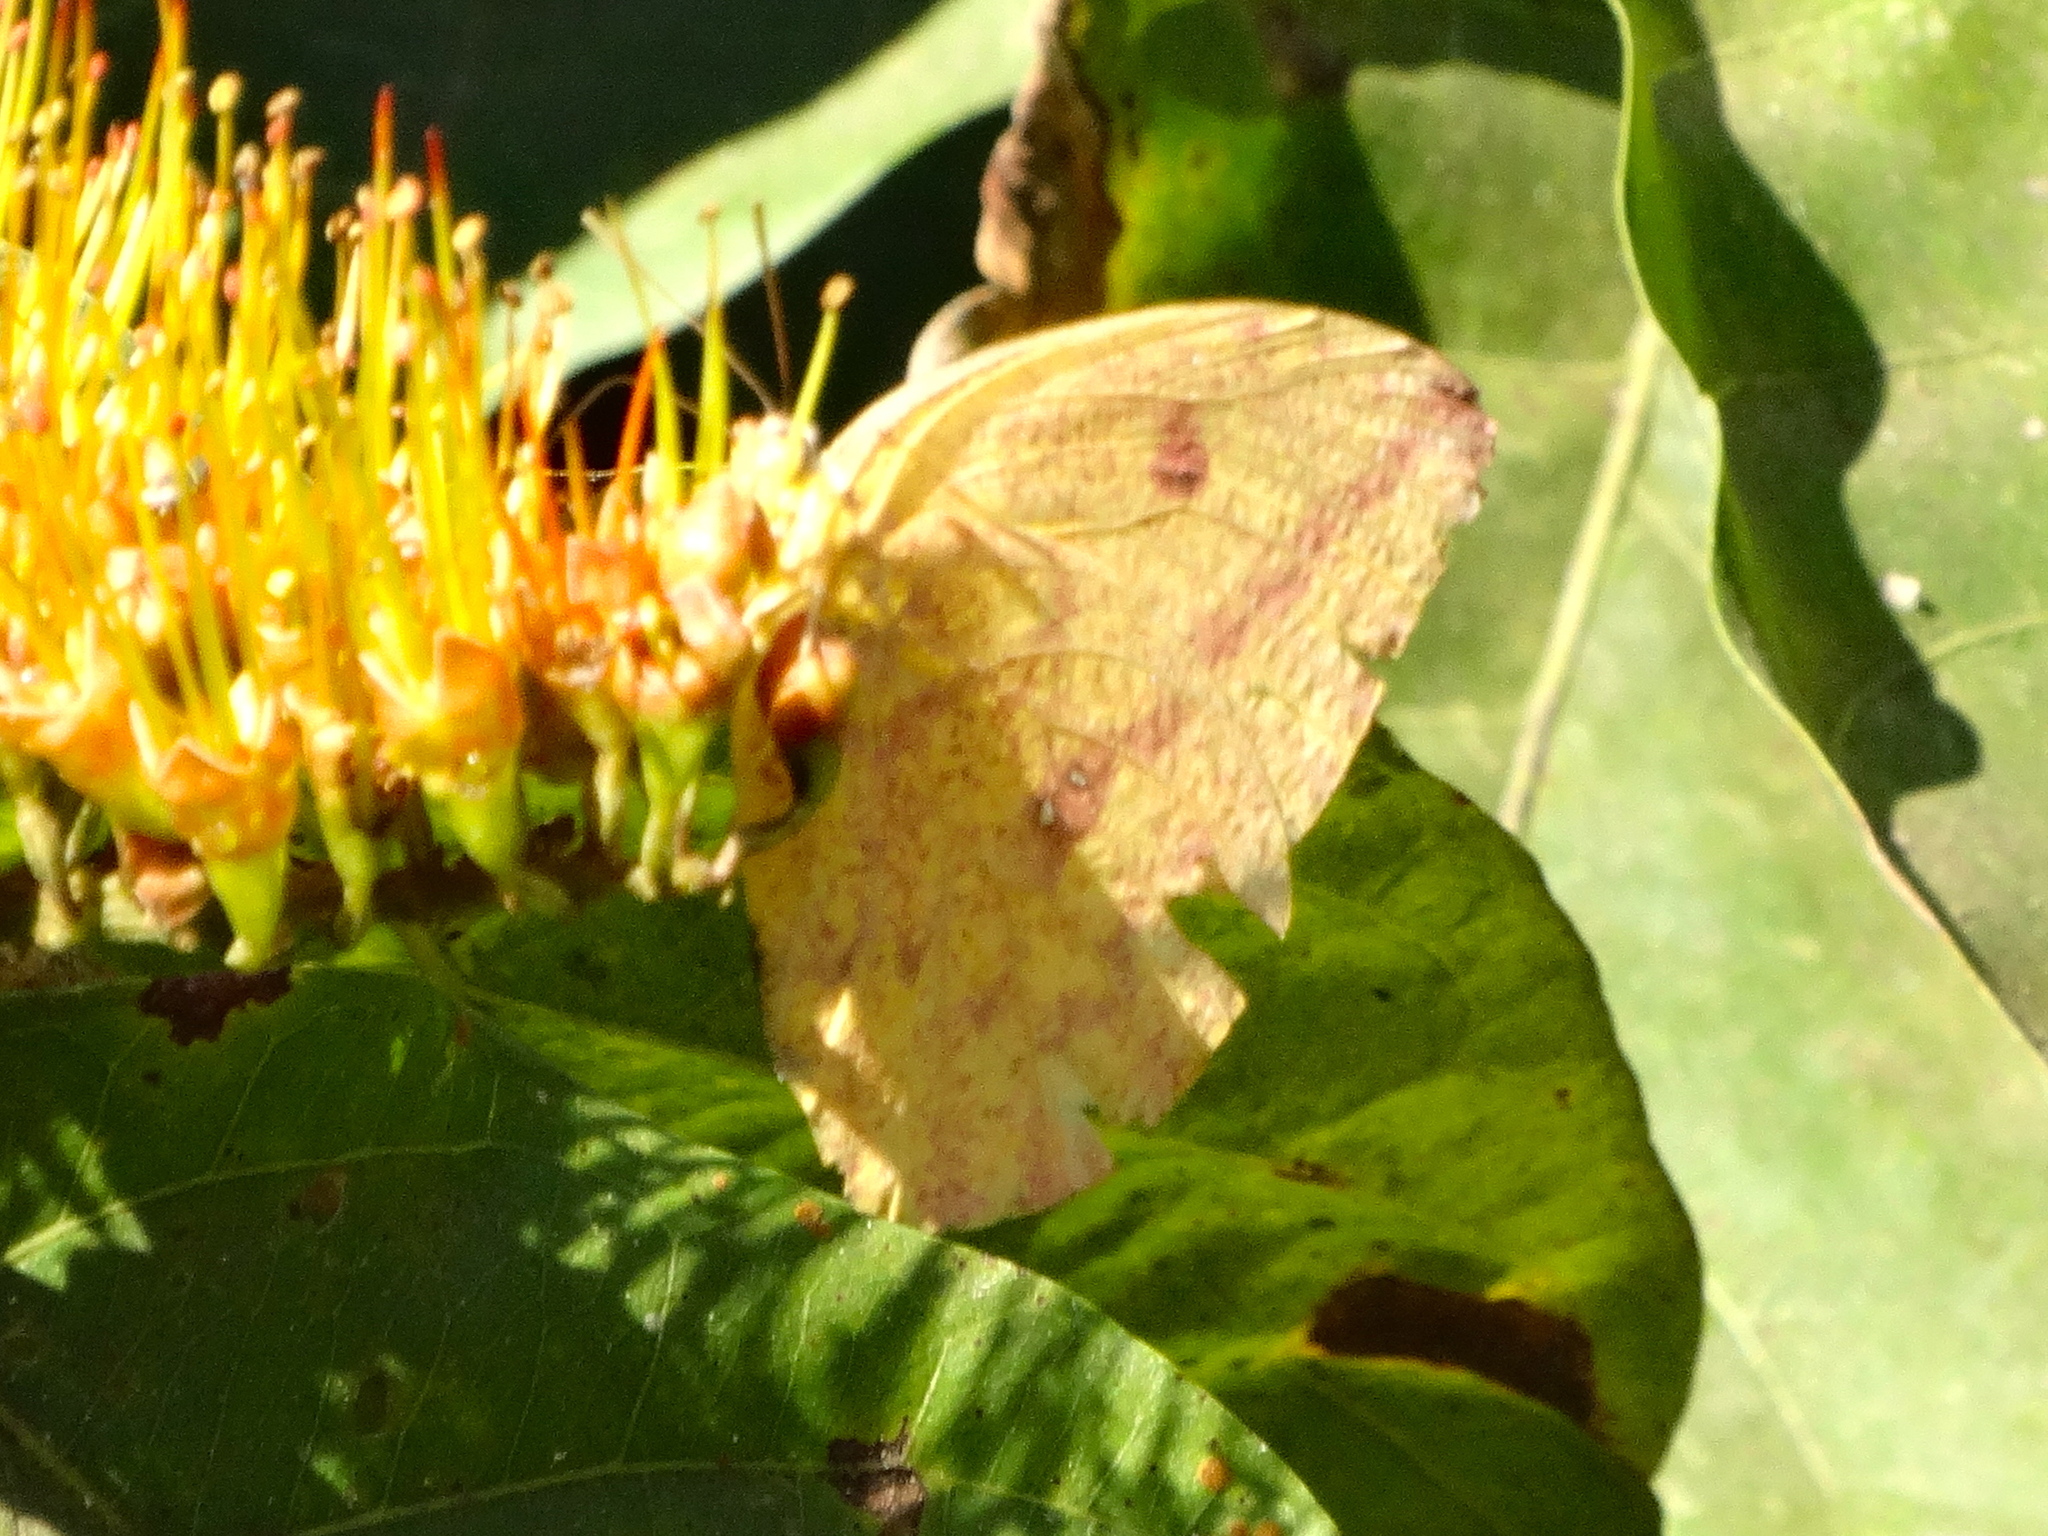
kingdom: Animalia
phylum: Arthropoda
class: Insecta
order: Lepidoptera
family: Pieridae
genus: Phoebis
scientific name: Phoebis agarithe
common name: Large orange sulphur
